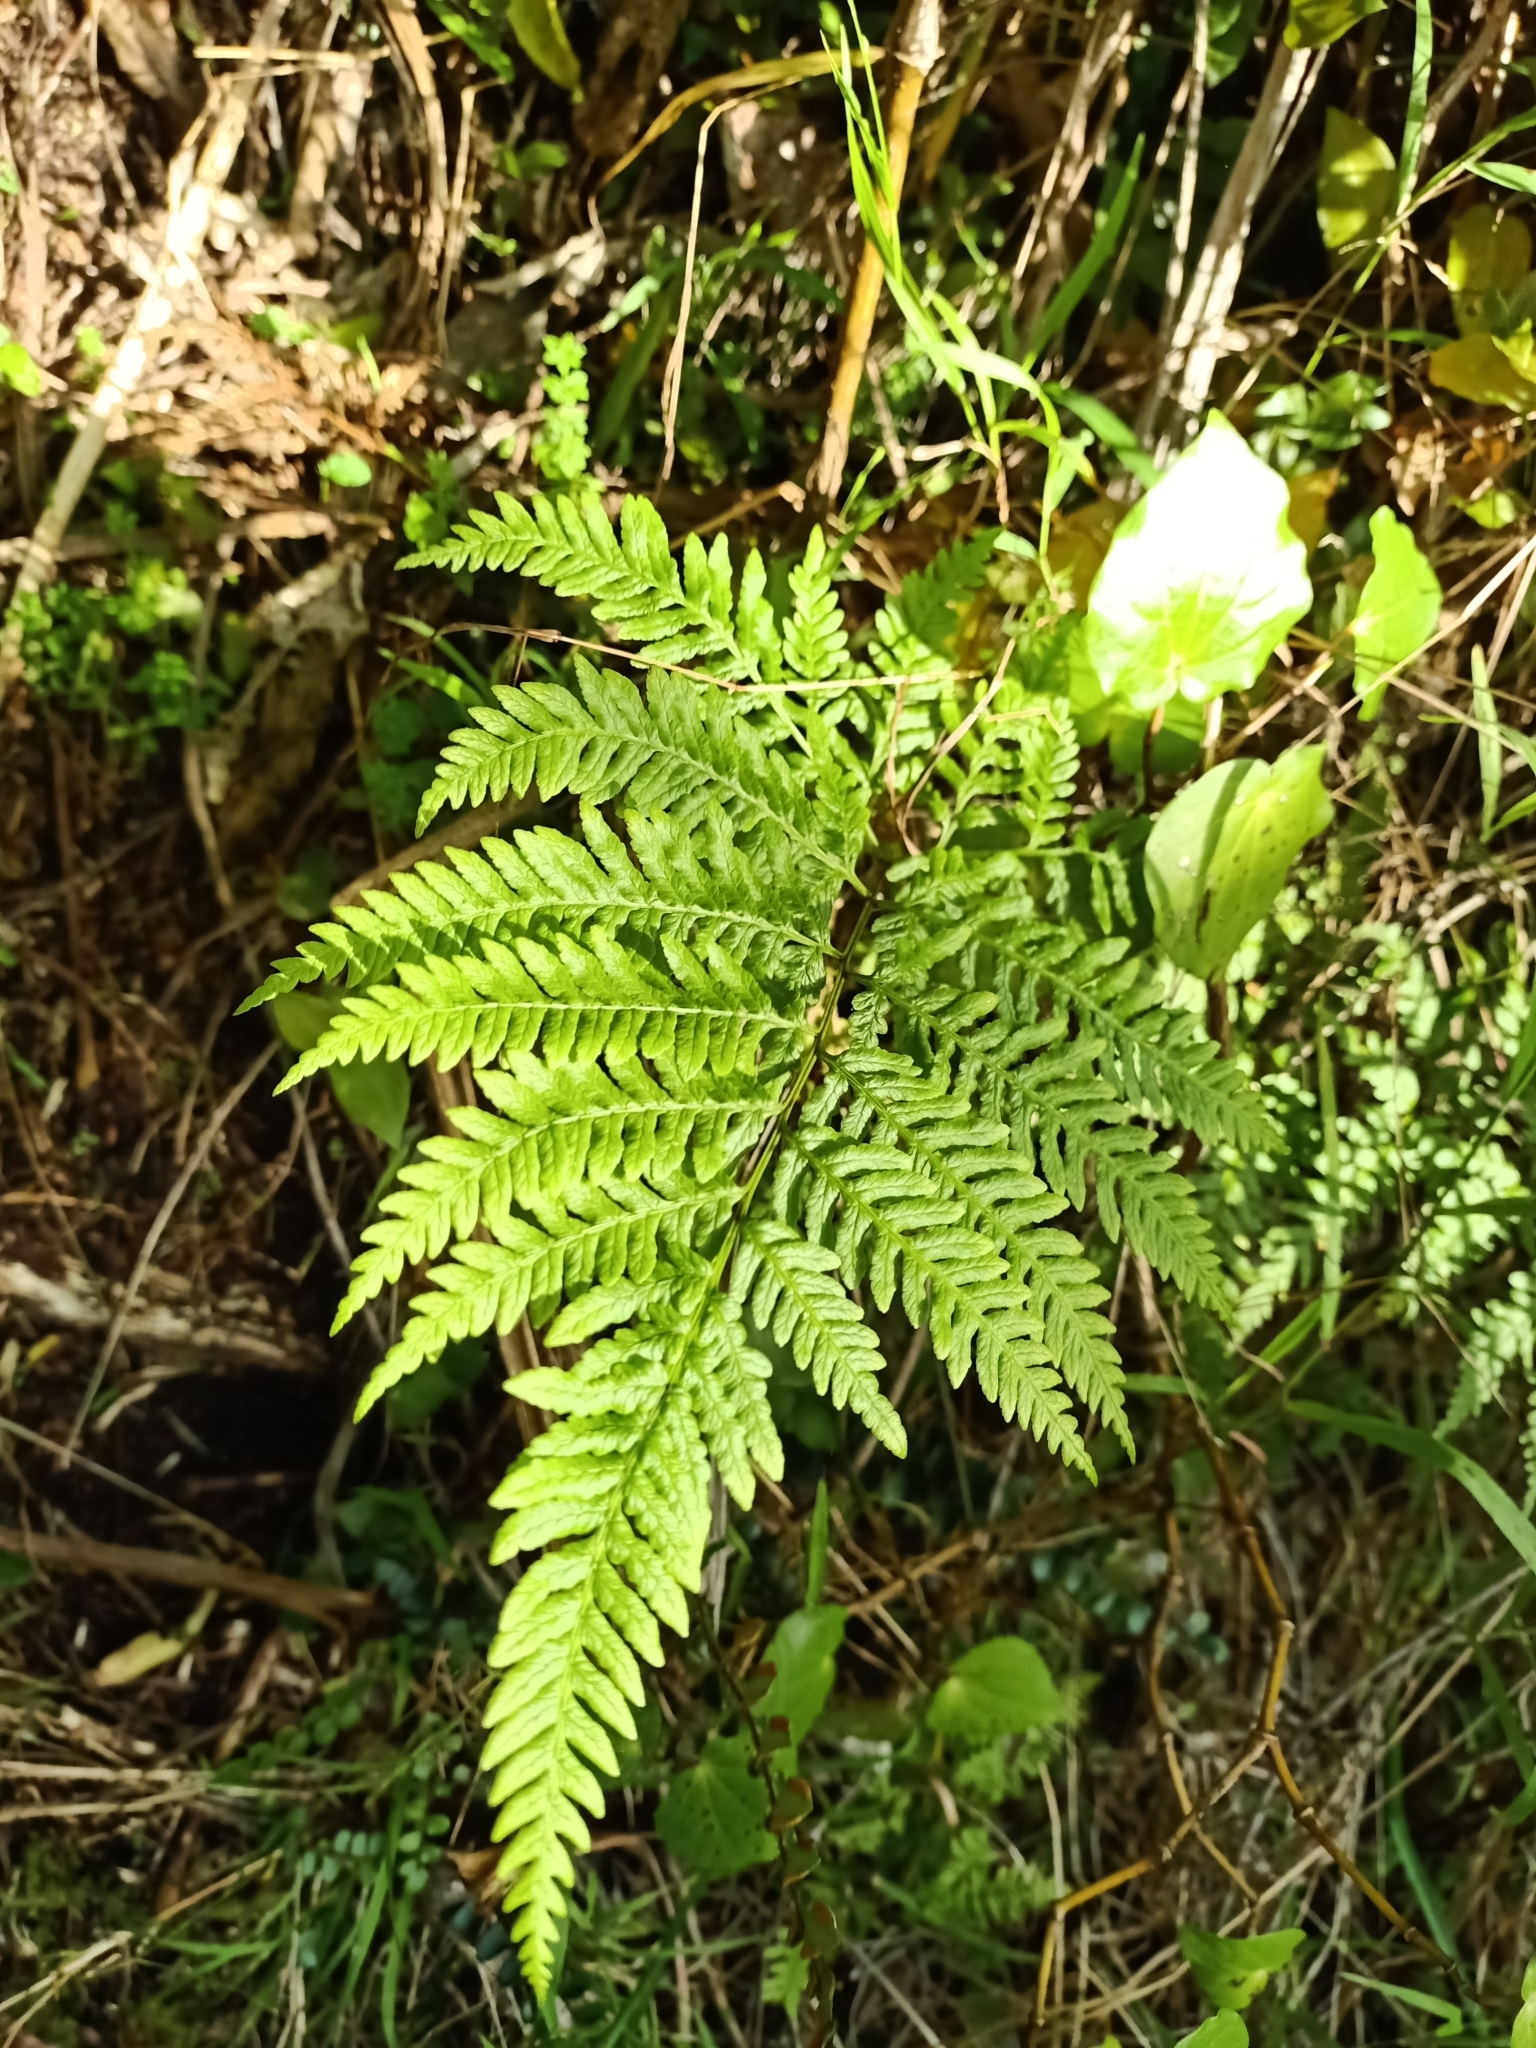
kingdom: Plantae
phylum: Tracheophyta
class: Polypodiopsida
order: Polypodiales
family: Pteridaceae
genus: Pteris
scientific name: Pteris tremula
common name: Australian brake
